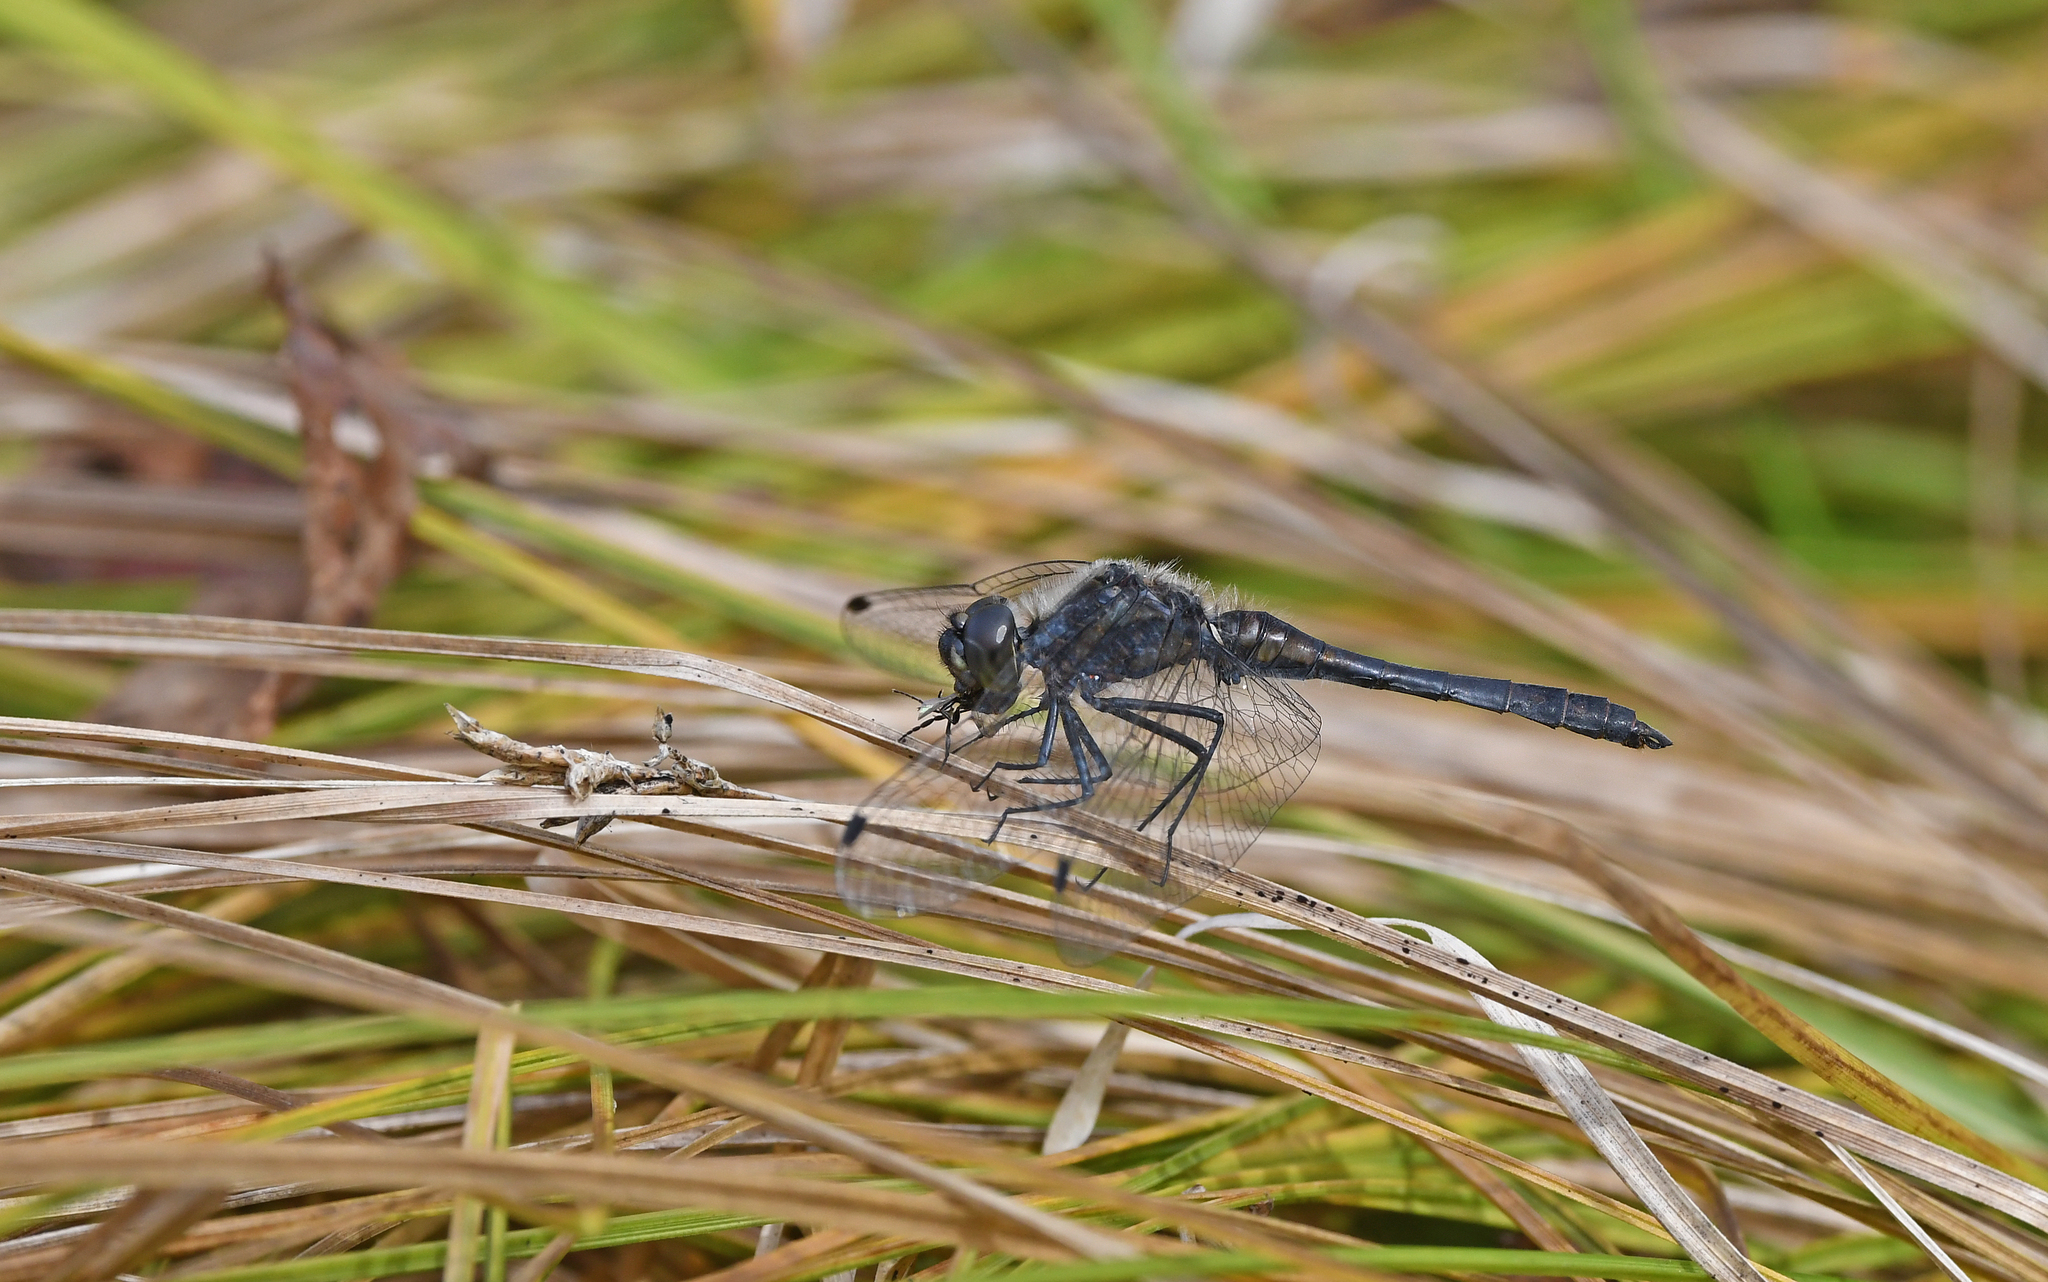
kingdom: Animalia
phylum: Arthropoda
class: Insecta
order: Odonata
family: Libellulidae
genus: Sympetrum
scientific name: Sympetrum danae
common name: Black darter
